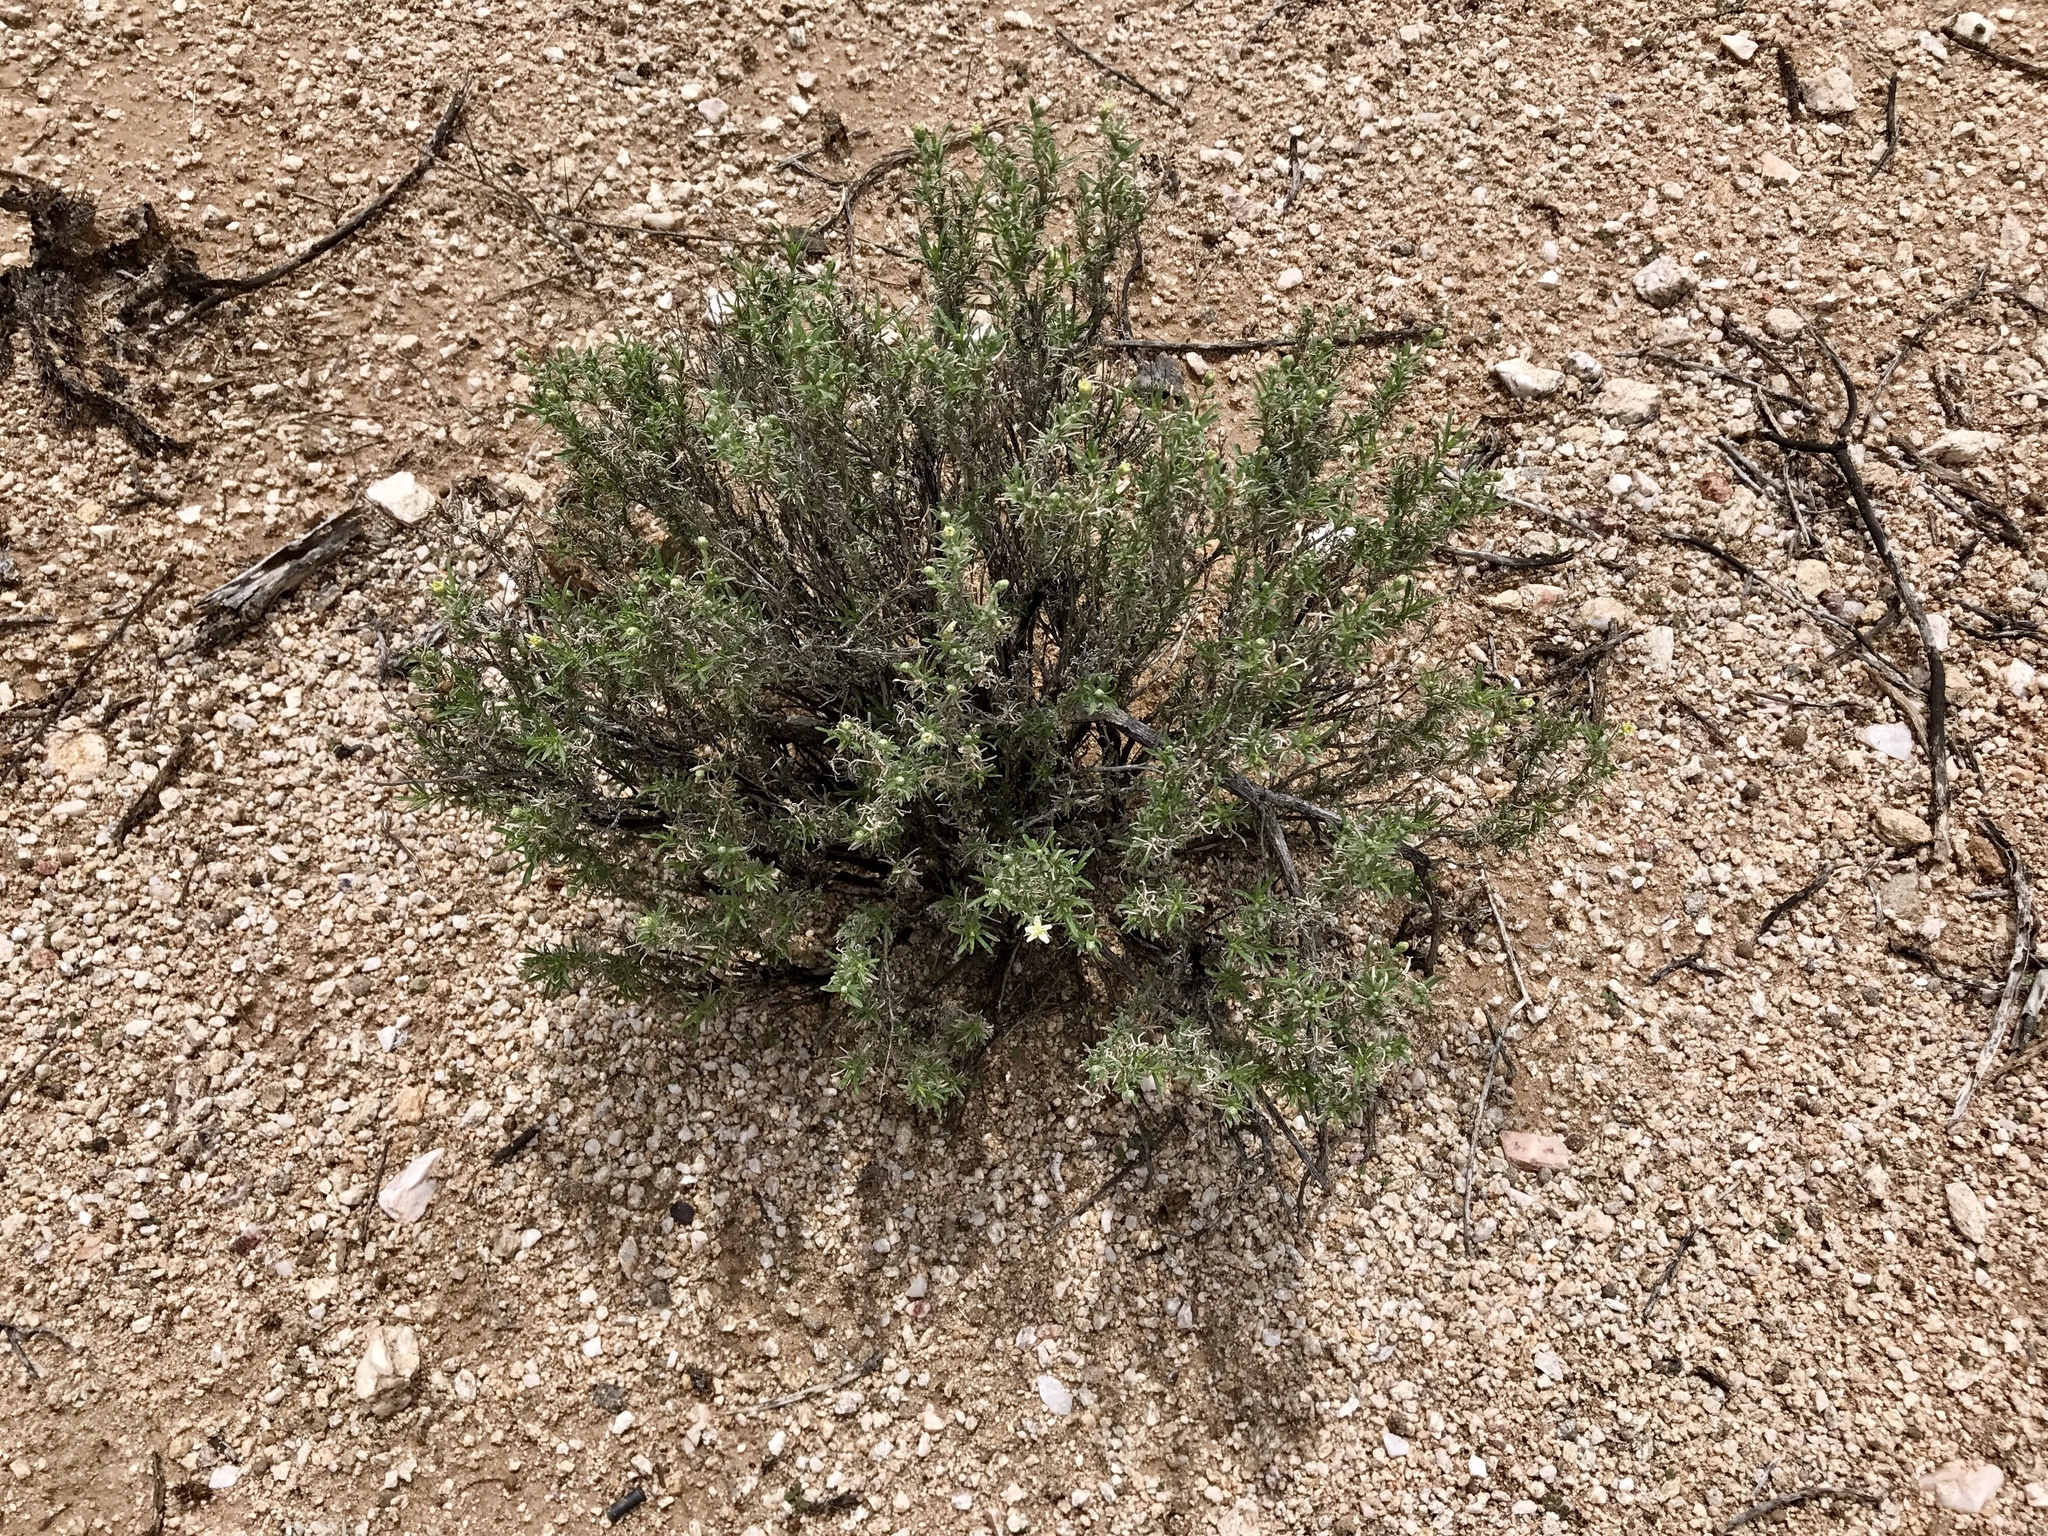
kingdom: Plantae
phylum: Tracheophyta
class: Magnoliopsida
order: Asterales
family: Asteraceae
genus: Zinnia
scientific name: Zinnia acerosa
